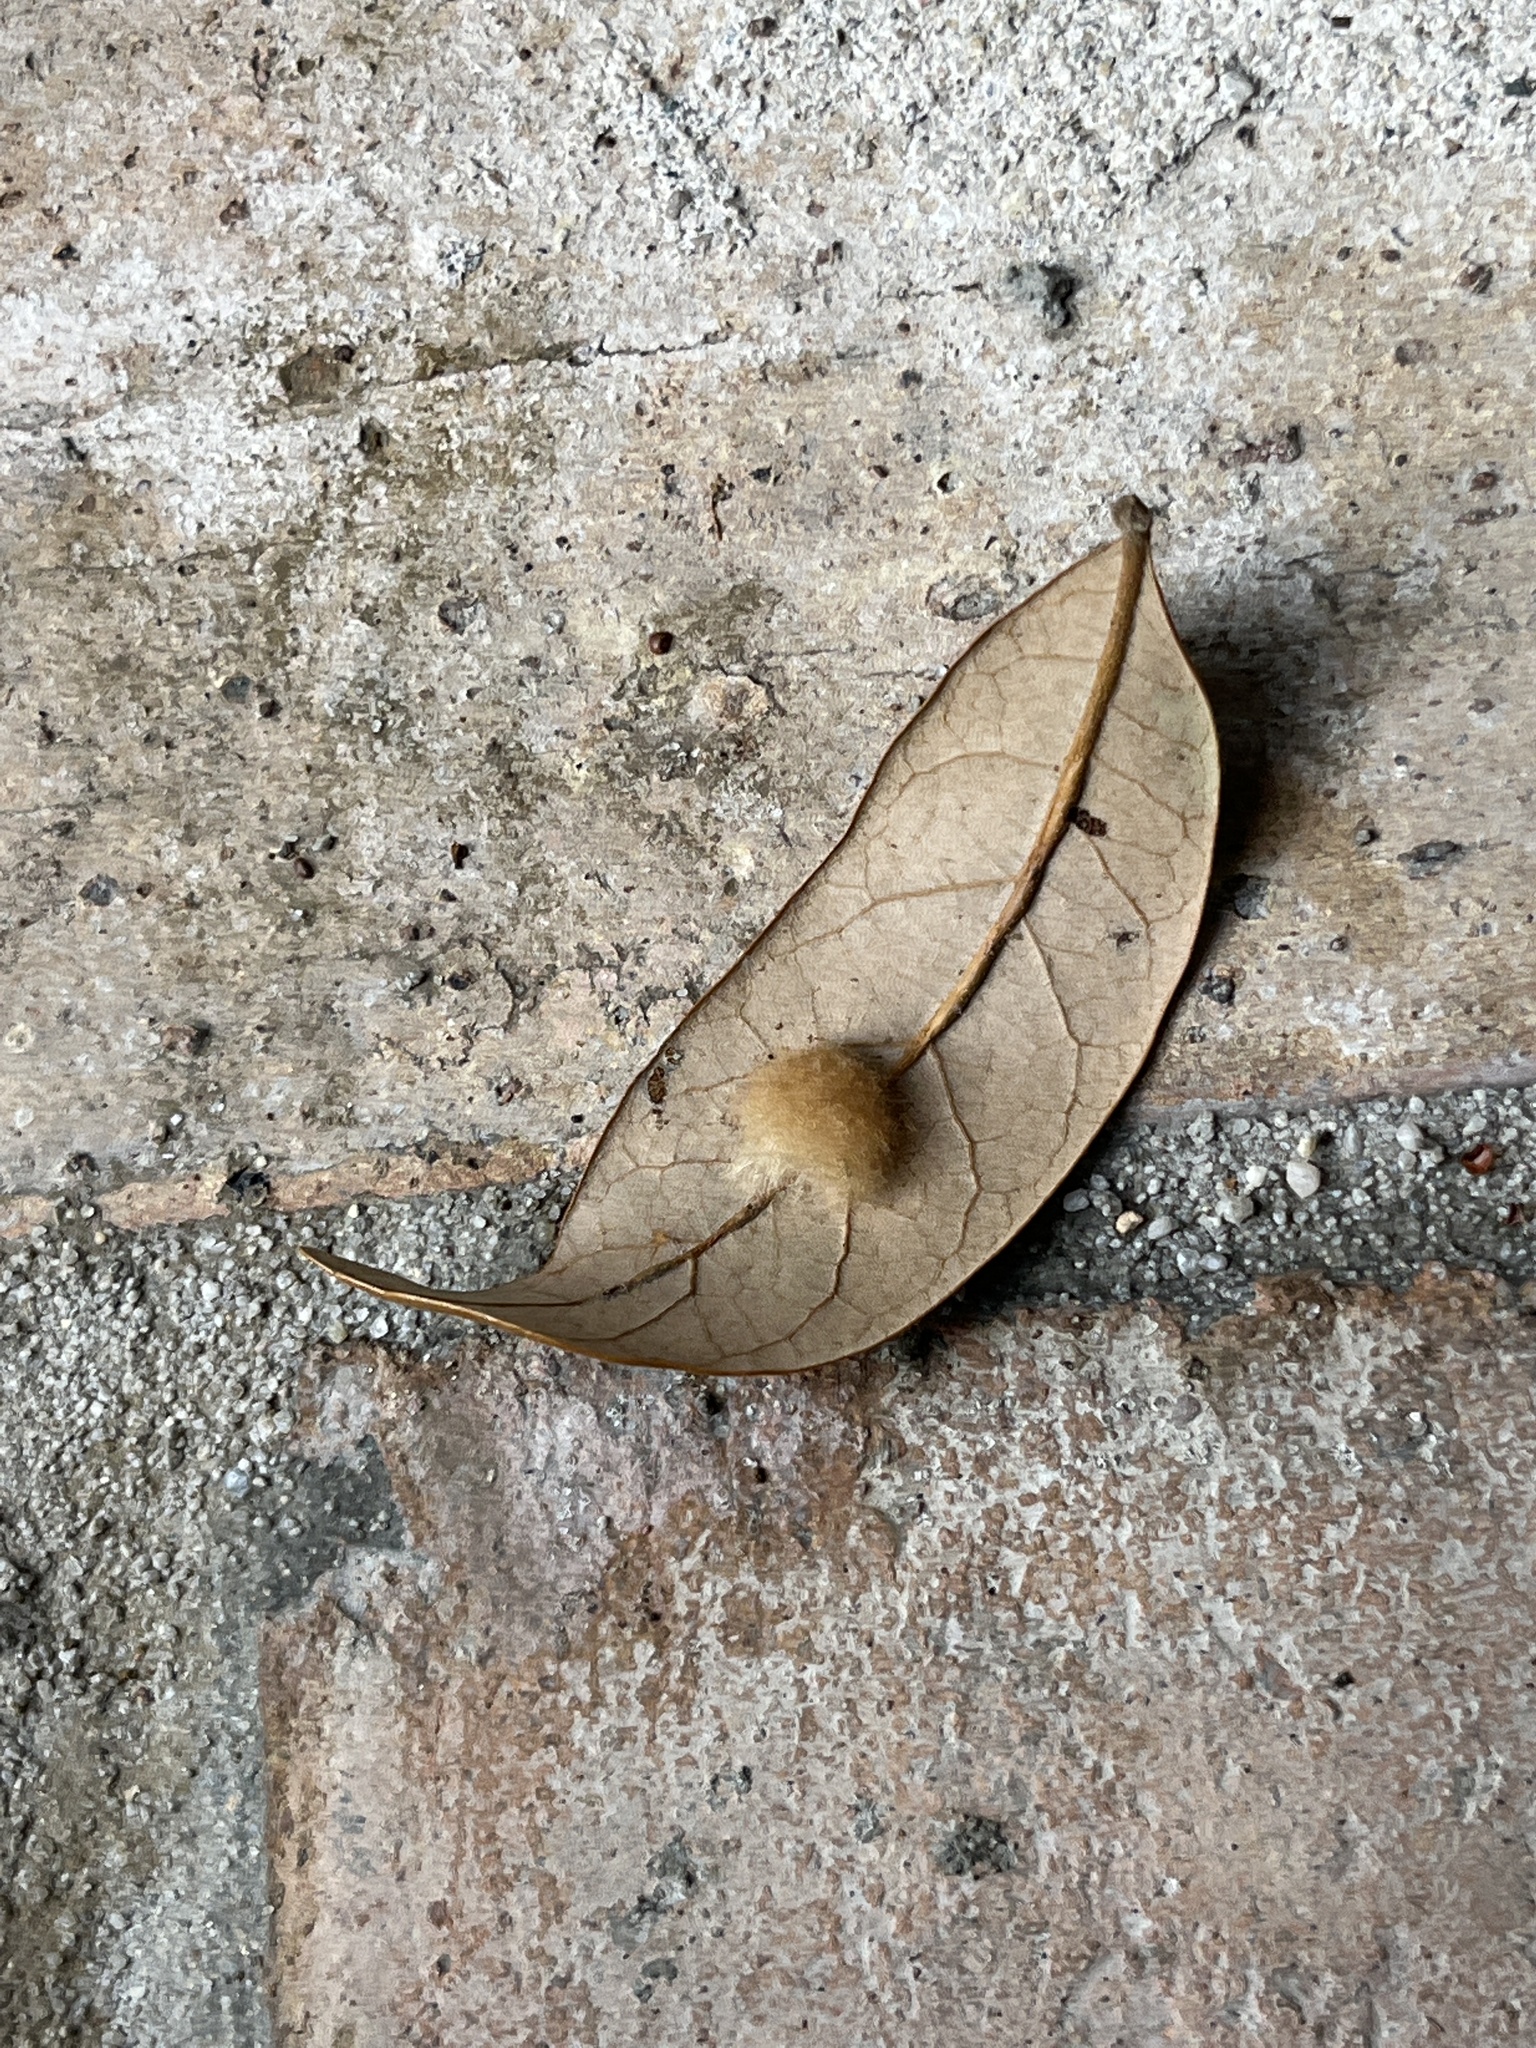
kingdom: Animalia
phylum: Arthropoda
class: Insecta
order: Hymenoptera
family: Cynipidae
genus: Andricus
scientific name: Andricus Druon quercuslanigerum
